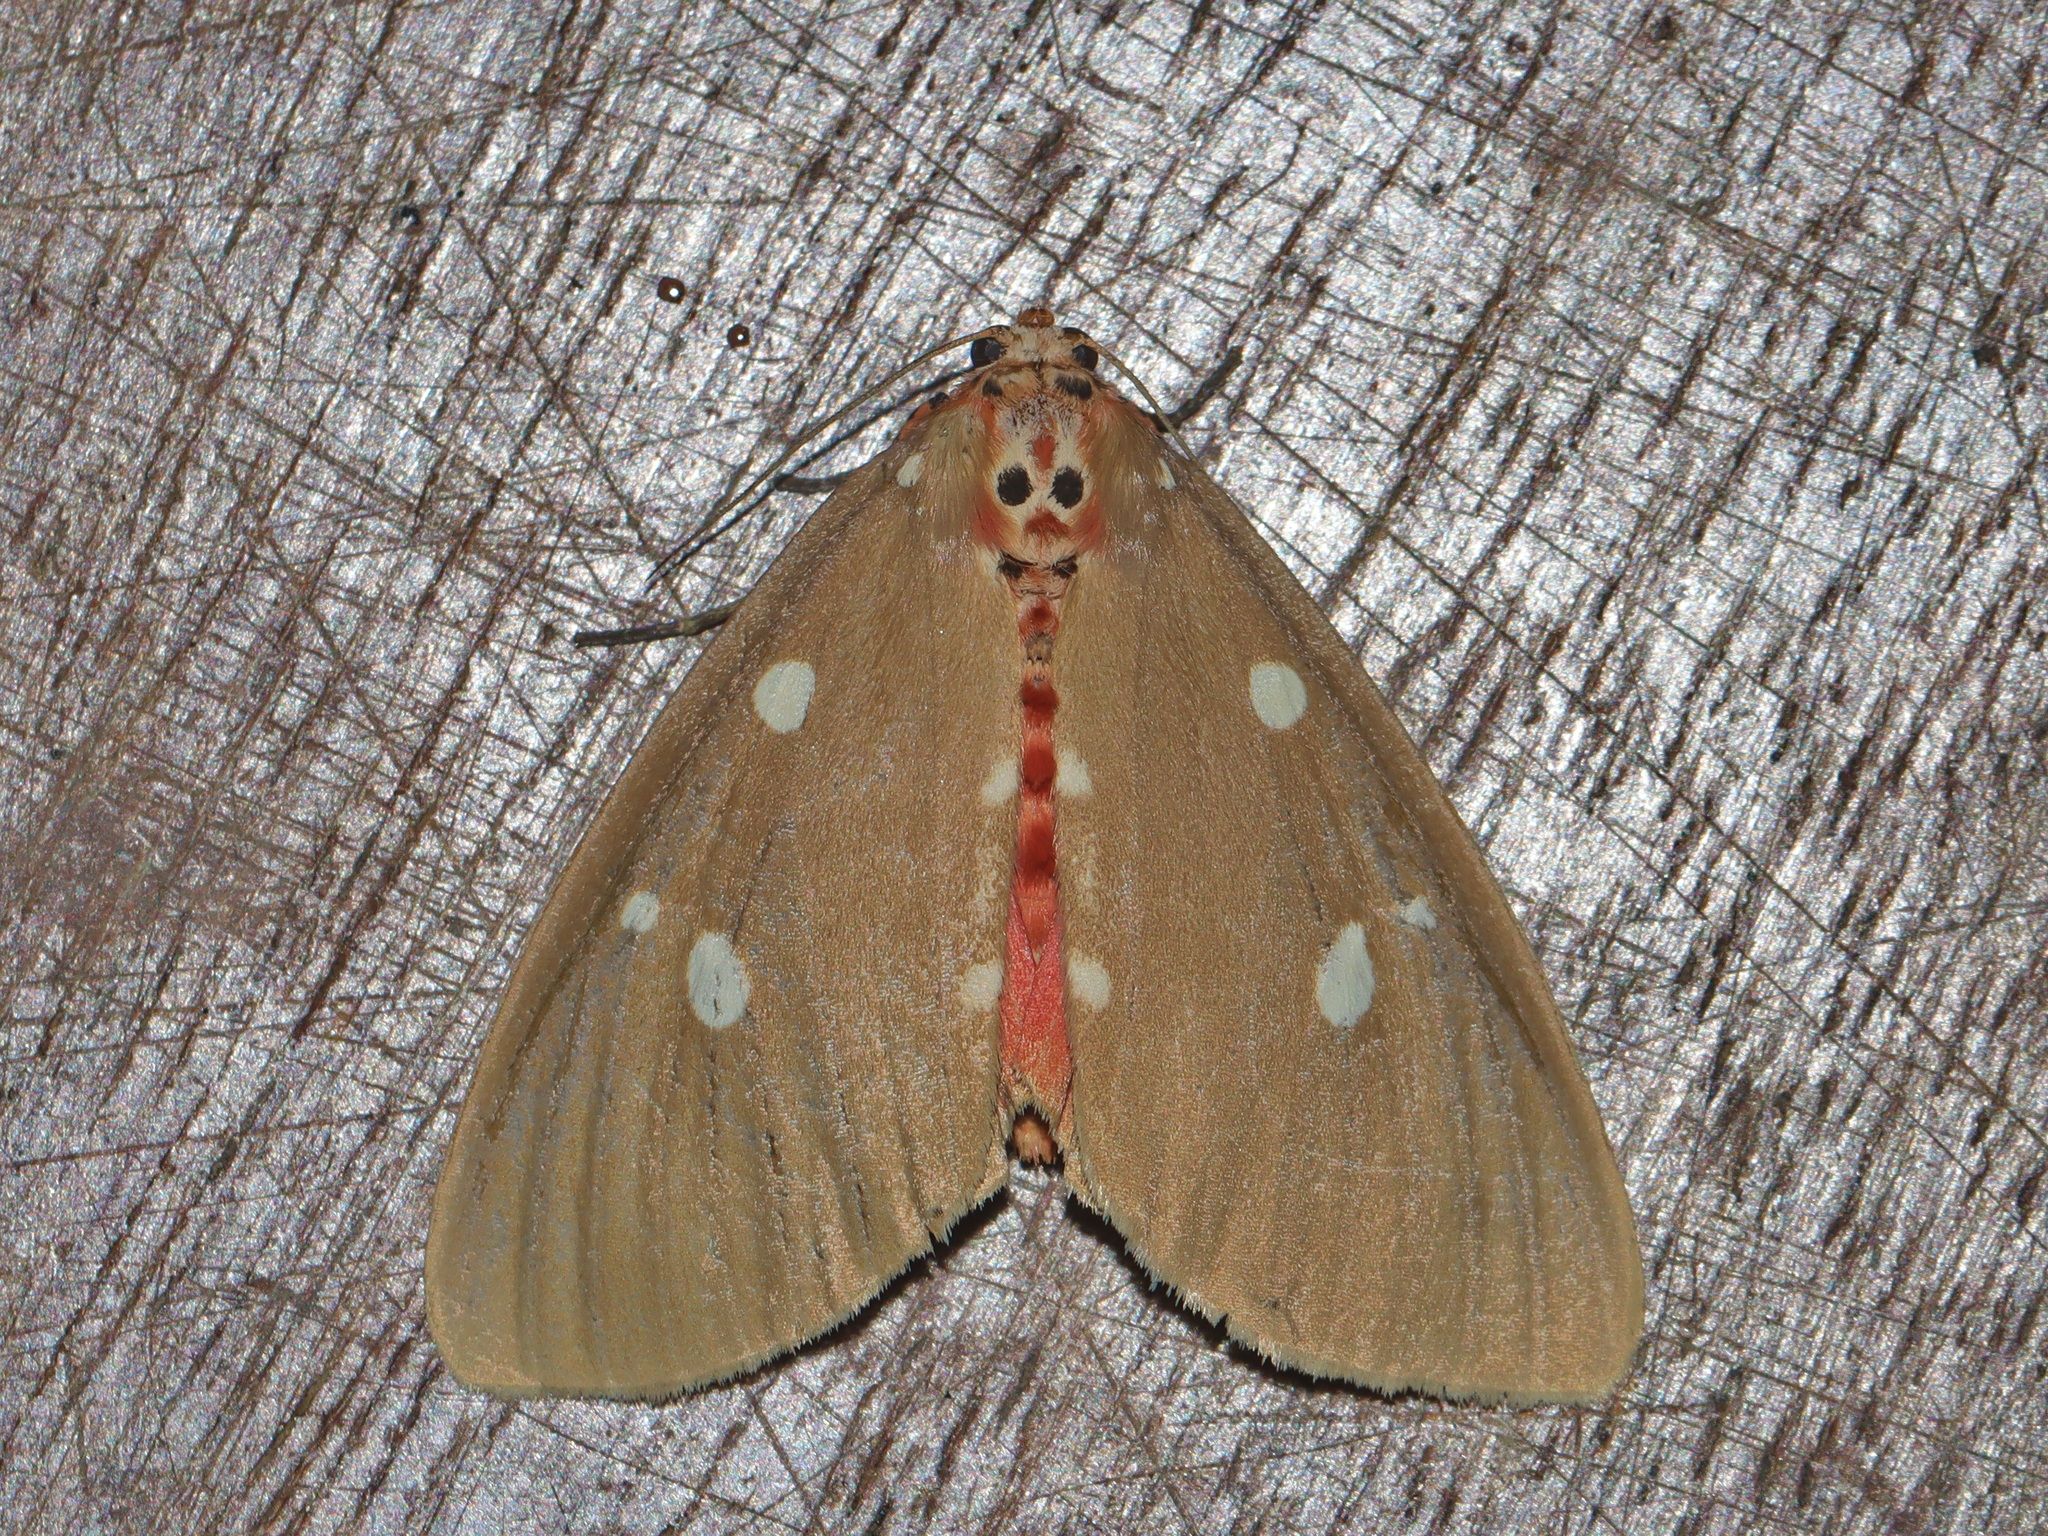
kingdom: Animalia
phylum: Arthropoda
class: Insecta
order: Lepidoptera
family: Erebidae
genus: Tinolius
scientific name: Tinolius eburneigutta
